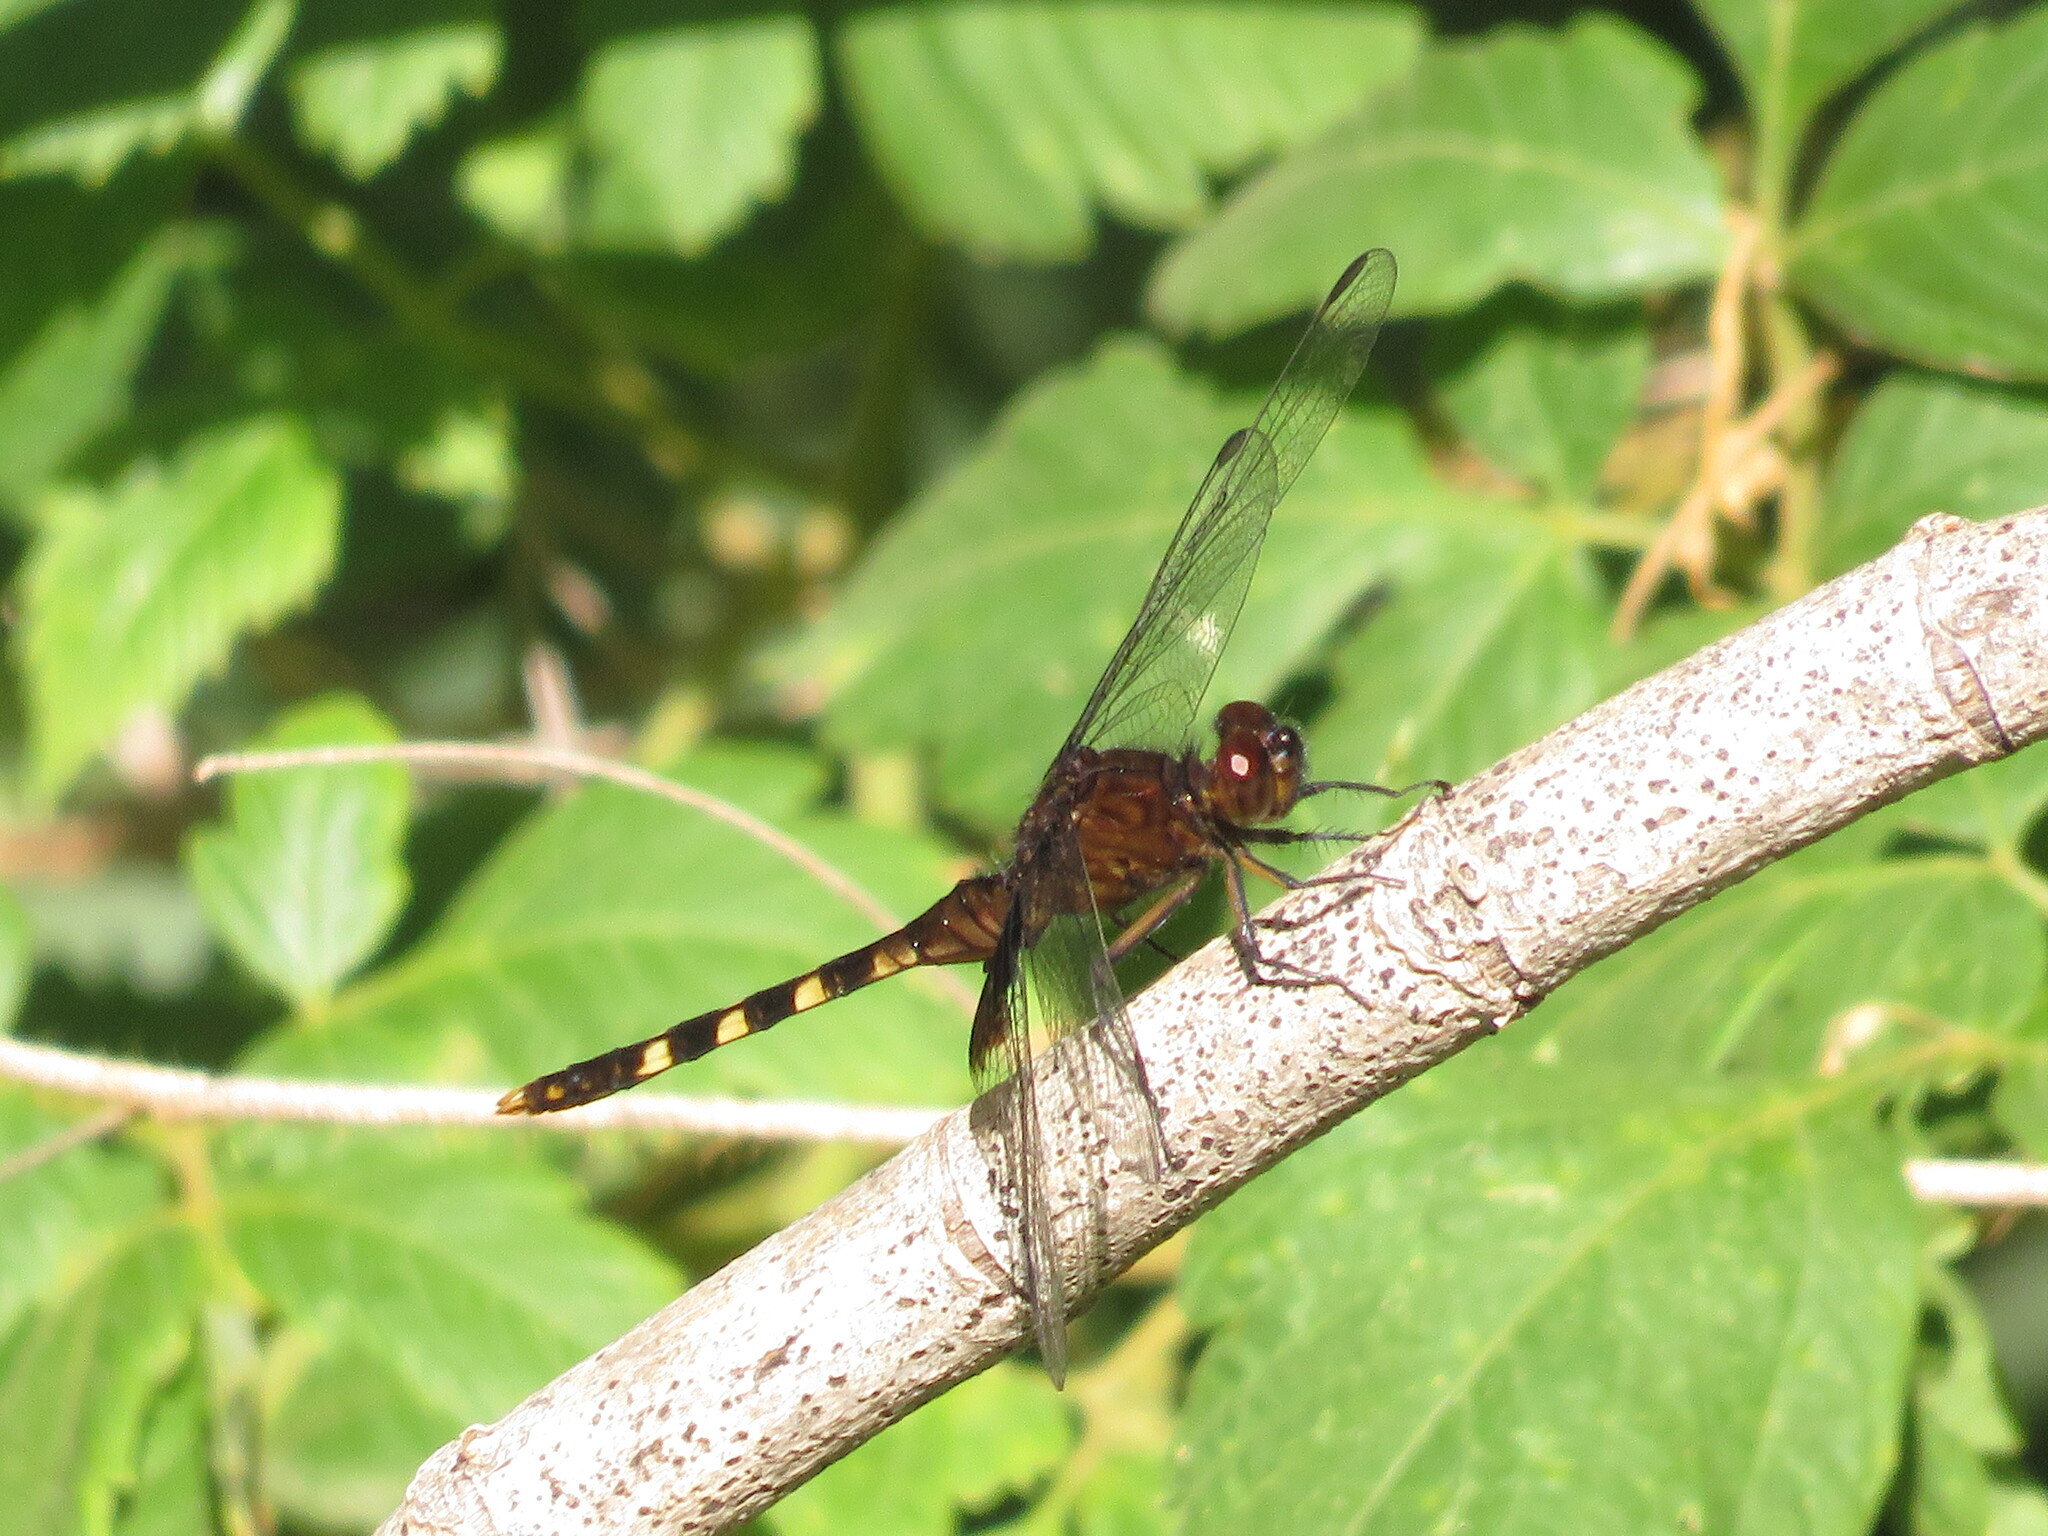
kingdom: Animalia
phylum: Arthropoda
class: Insecta
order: Odonata
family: Libellulidae
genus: Erythemis
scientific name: Erythemis attala
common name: Black pondhawk
